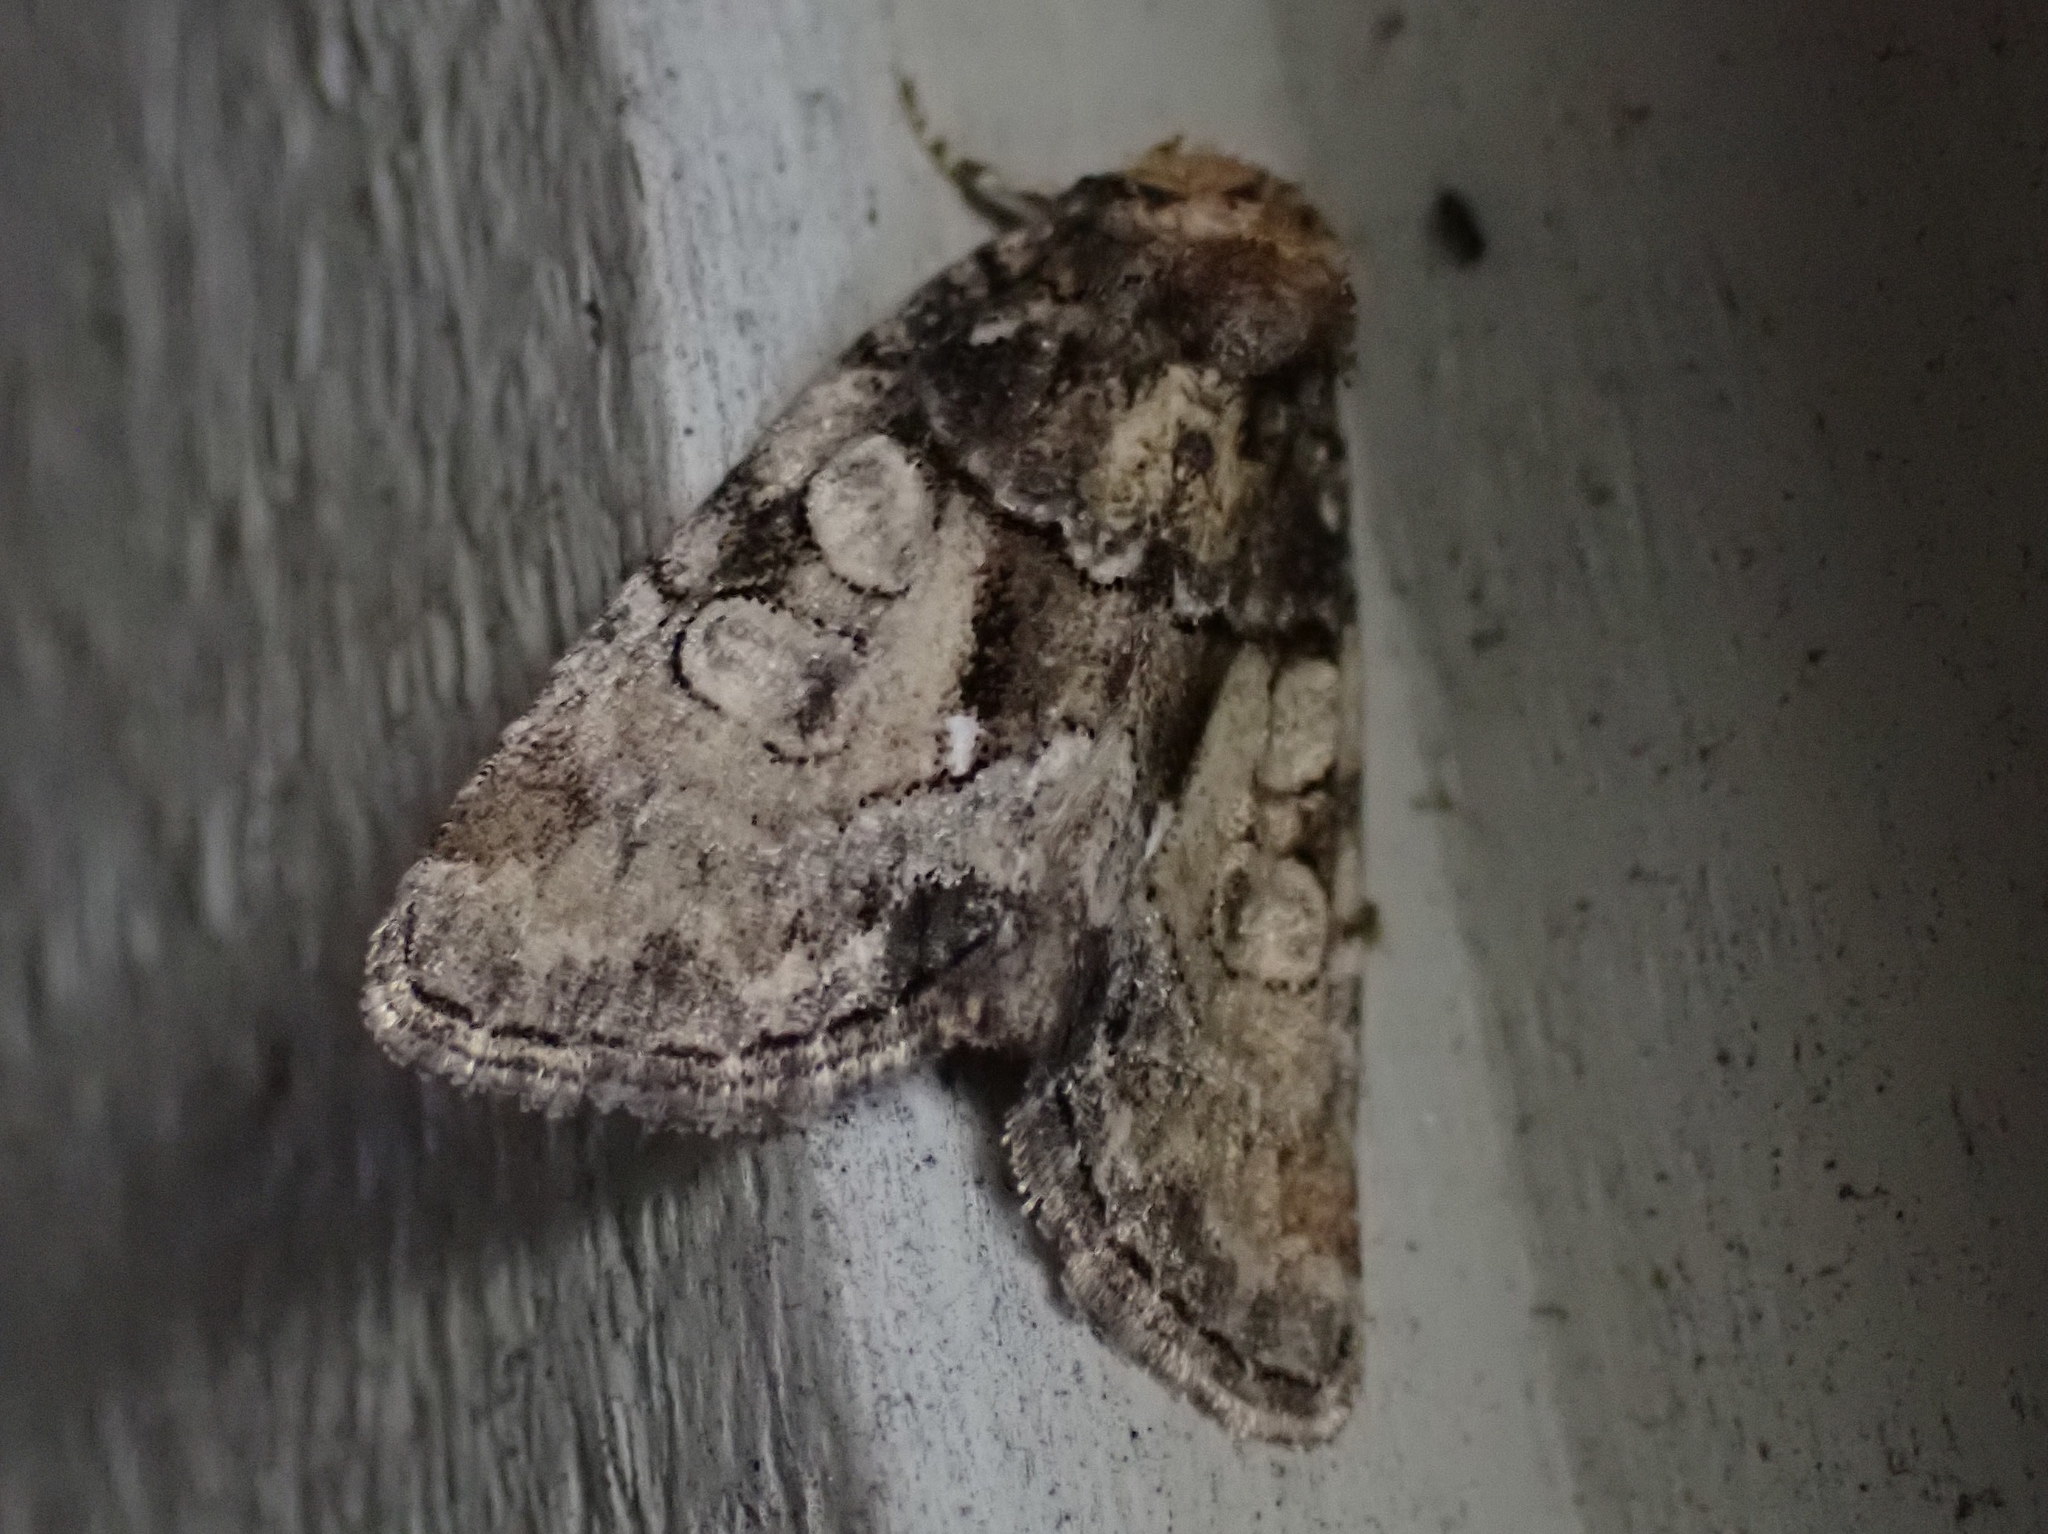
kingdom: Animalia
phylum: Arthropoda
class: Insecta
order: Lepidoptera
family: Noctuidae
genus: Chytonix
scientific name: Chytonix palliatricula
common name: Cloaked marvel
